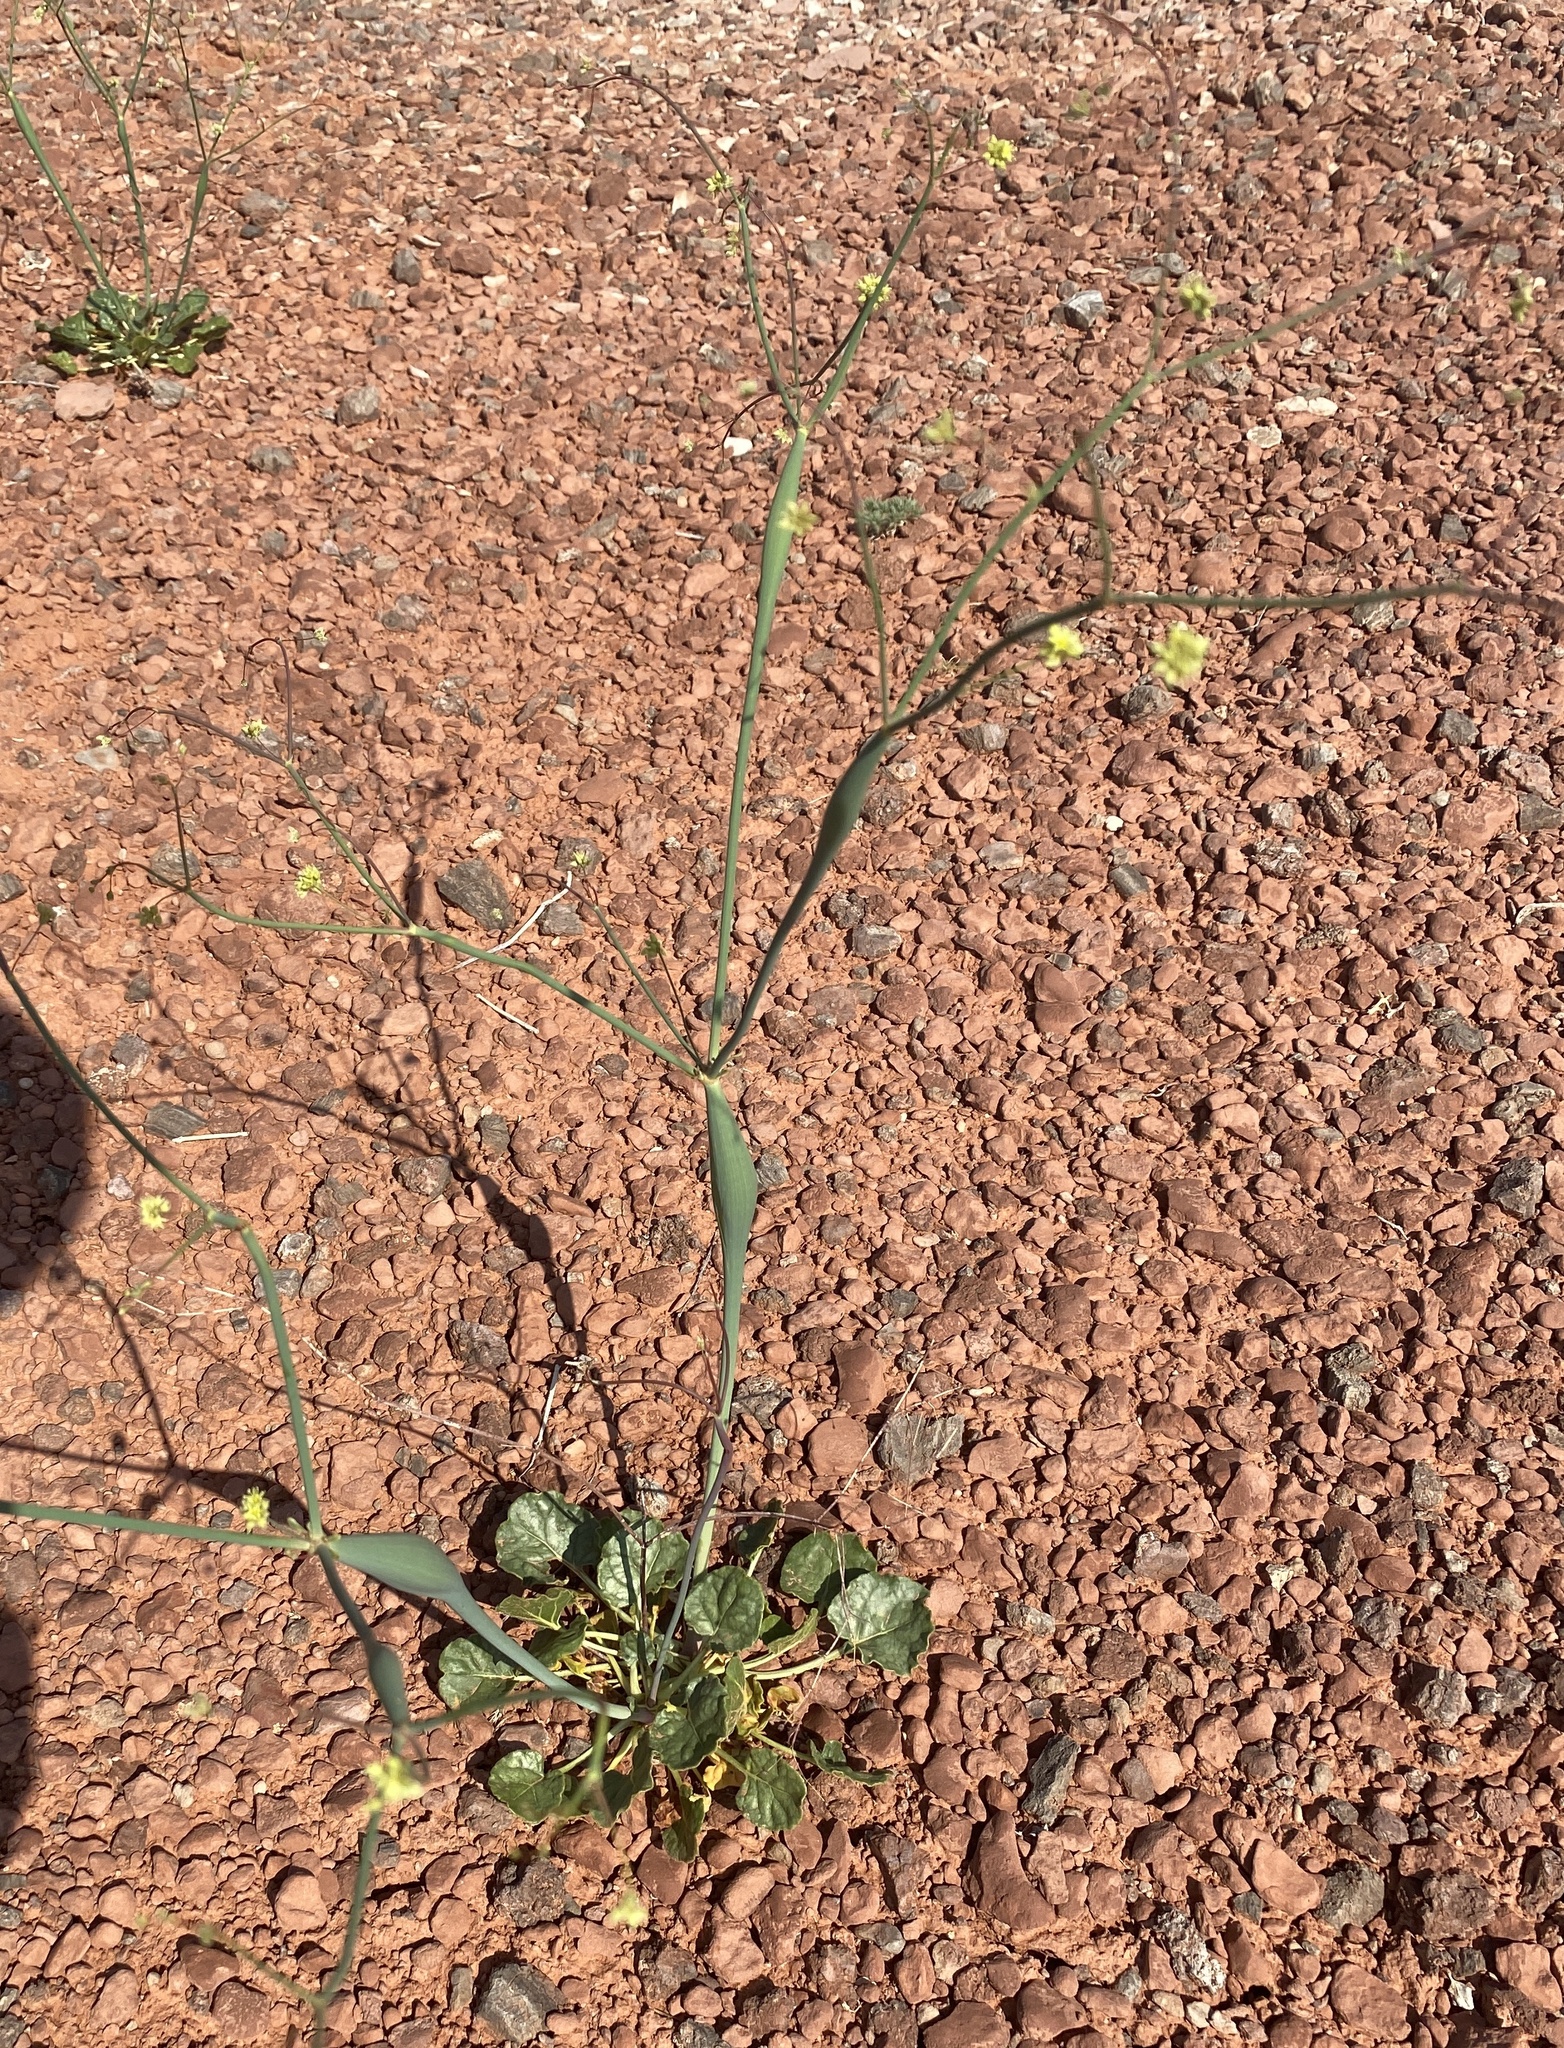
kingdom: Plantae
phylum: Tracheophyta
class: Magnoliopsida
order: Caryophyllales
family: Polygonaceae
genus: Eriogonum
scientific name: Eriogonum inflatum
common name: Desert trumpet
